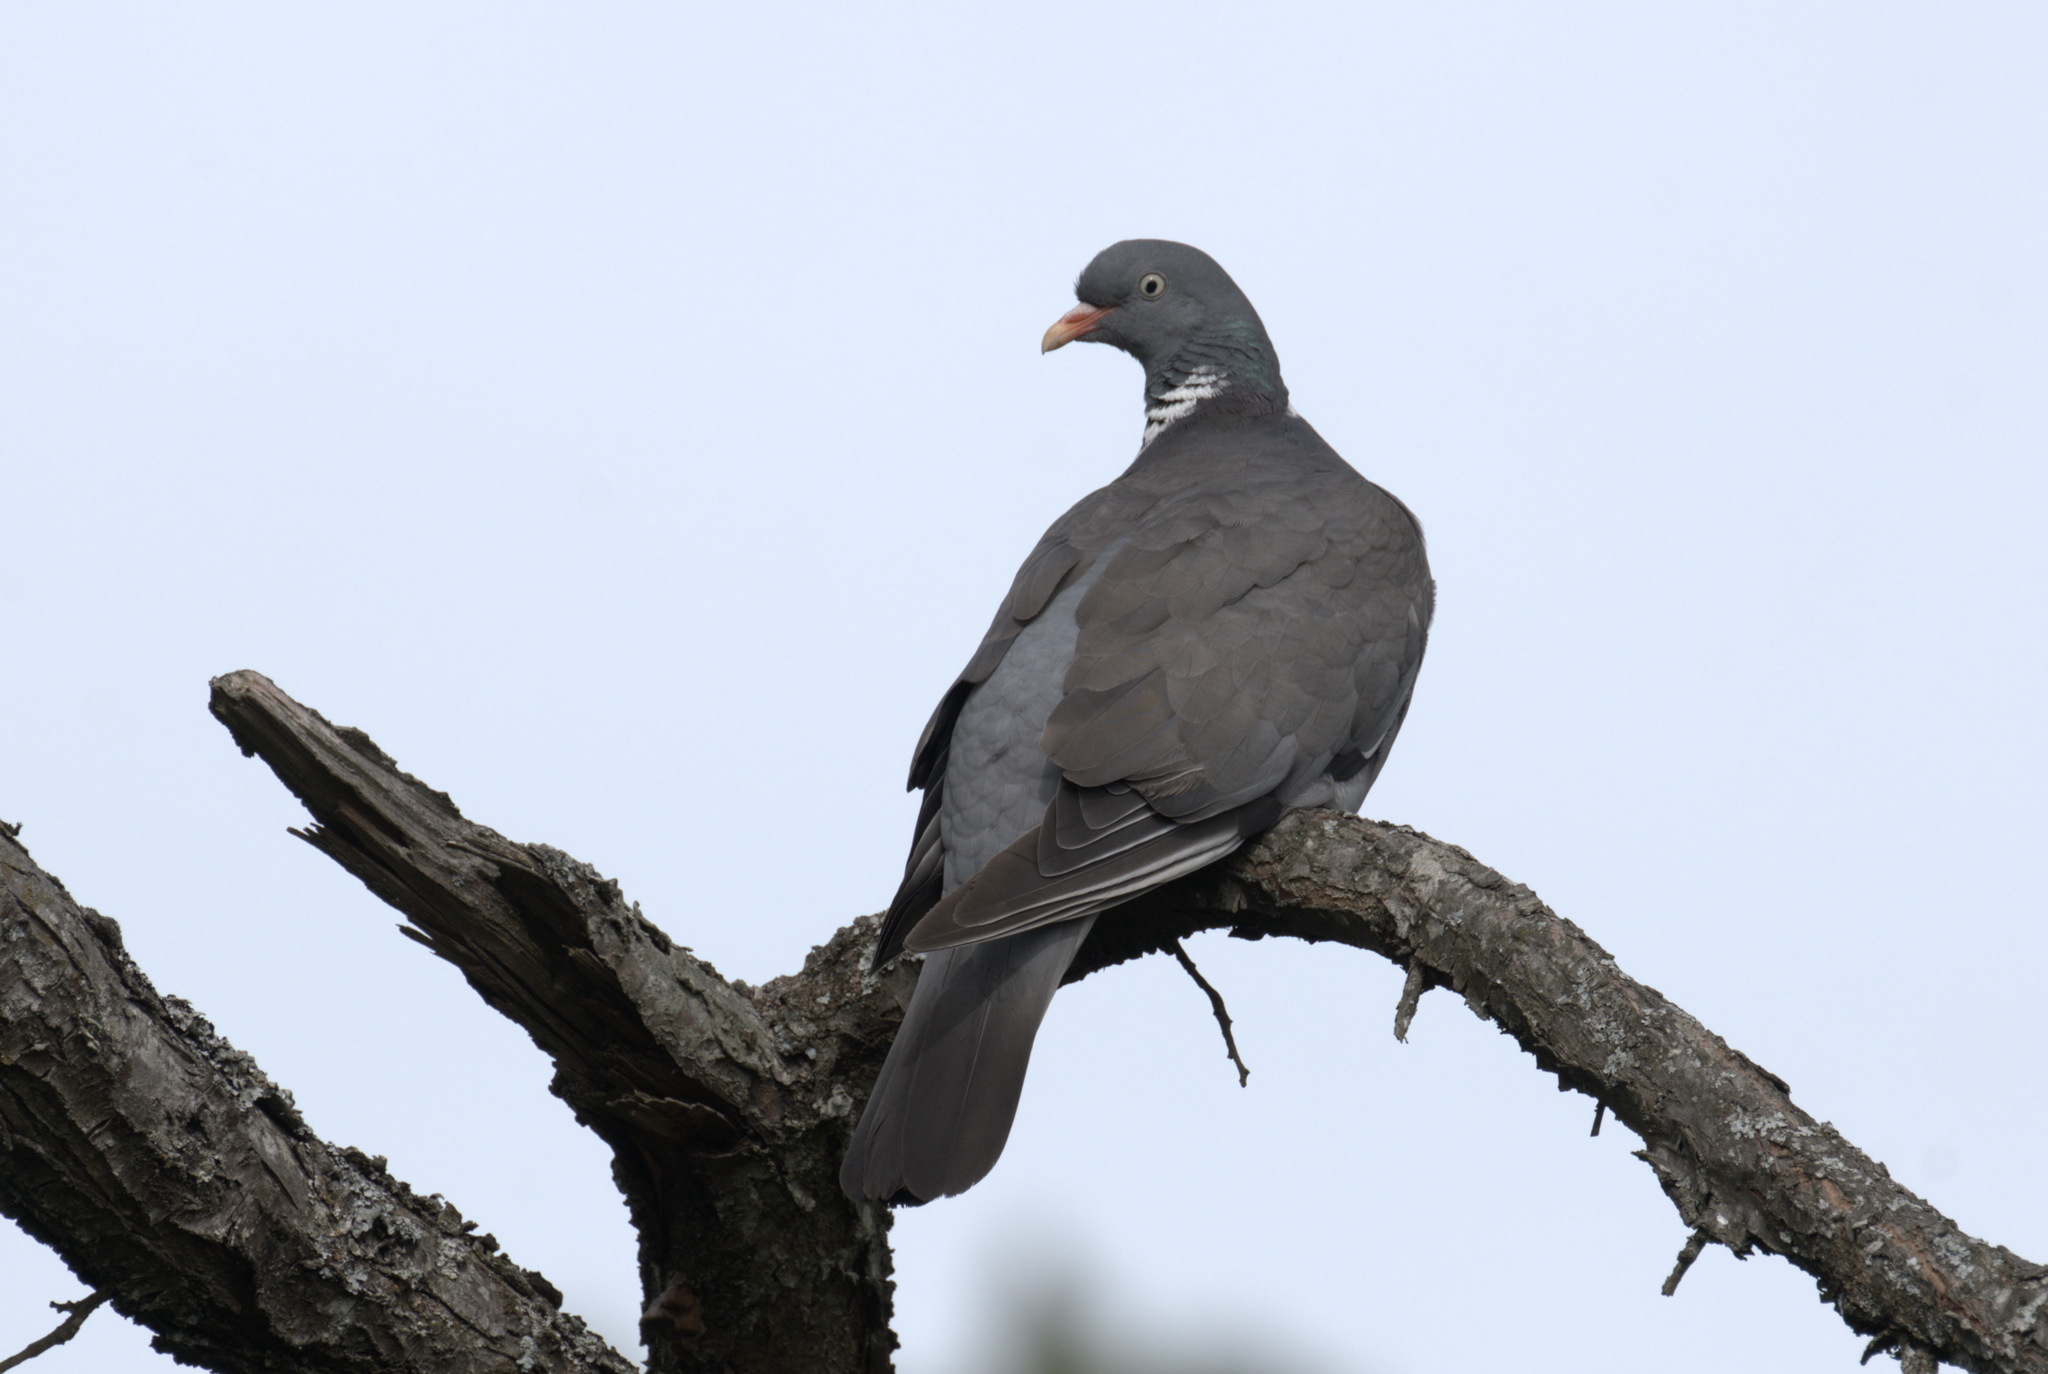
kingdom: Animalia
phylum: Chordata
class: Aves
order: Columbiformes
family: Columbidae
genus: Columba
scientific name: Columba palumbus
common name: Common wood pigeon
